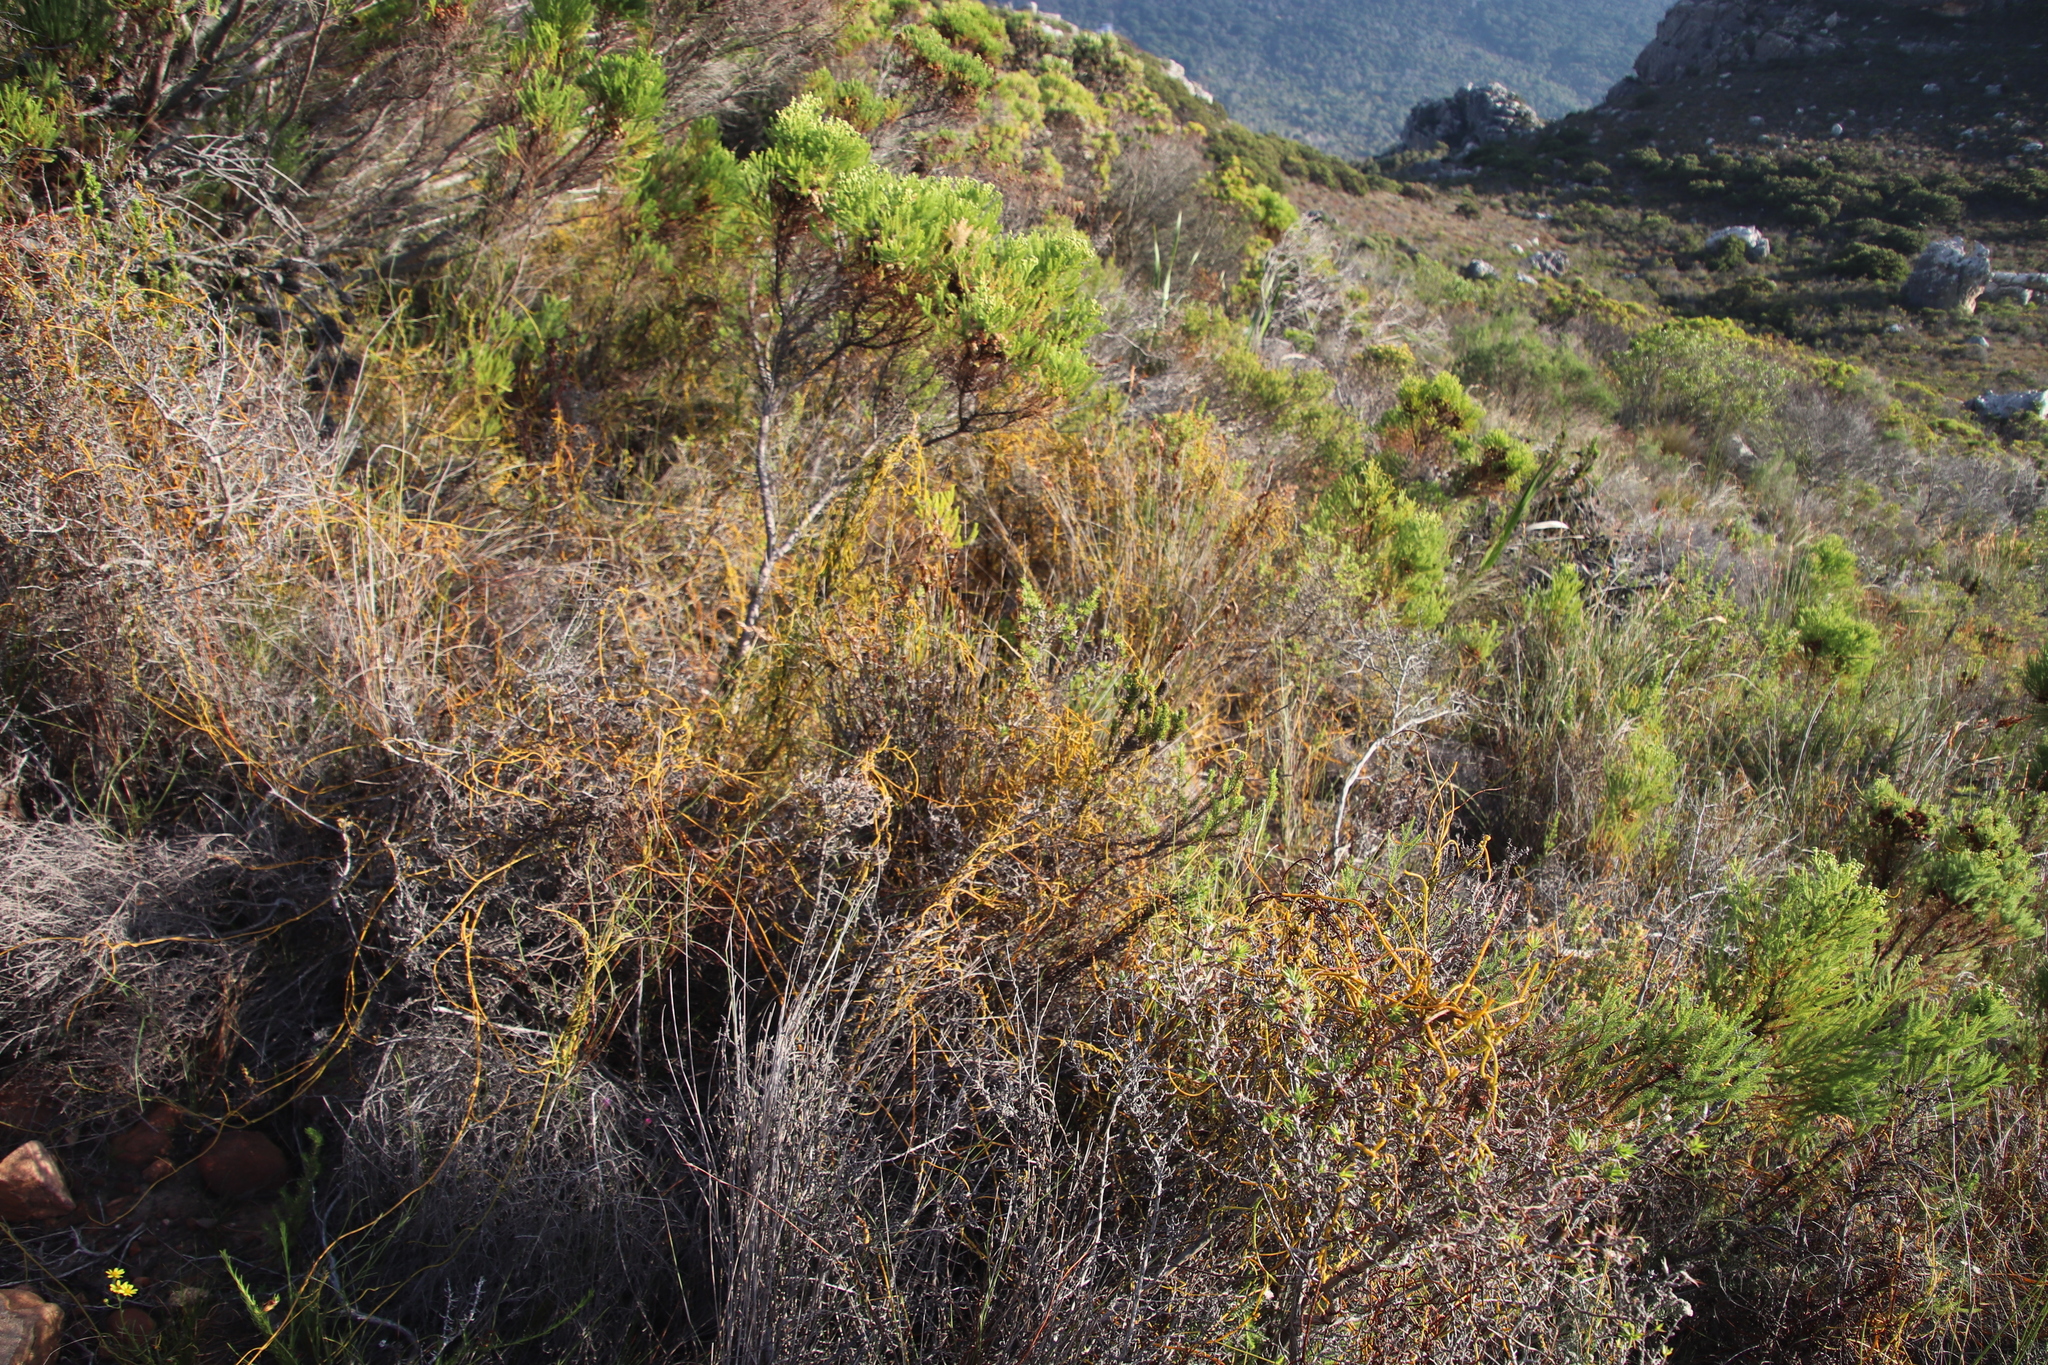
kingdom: Plantae
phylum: Tracheophyta
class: Magnoliopsida
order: Laurales
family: Lauraceae
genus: Cassytha
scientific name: Cassytha ciliolata
